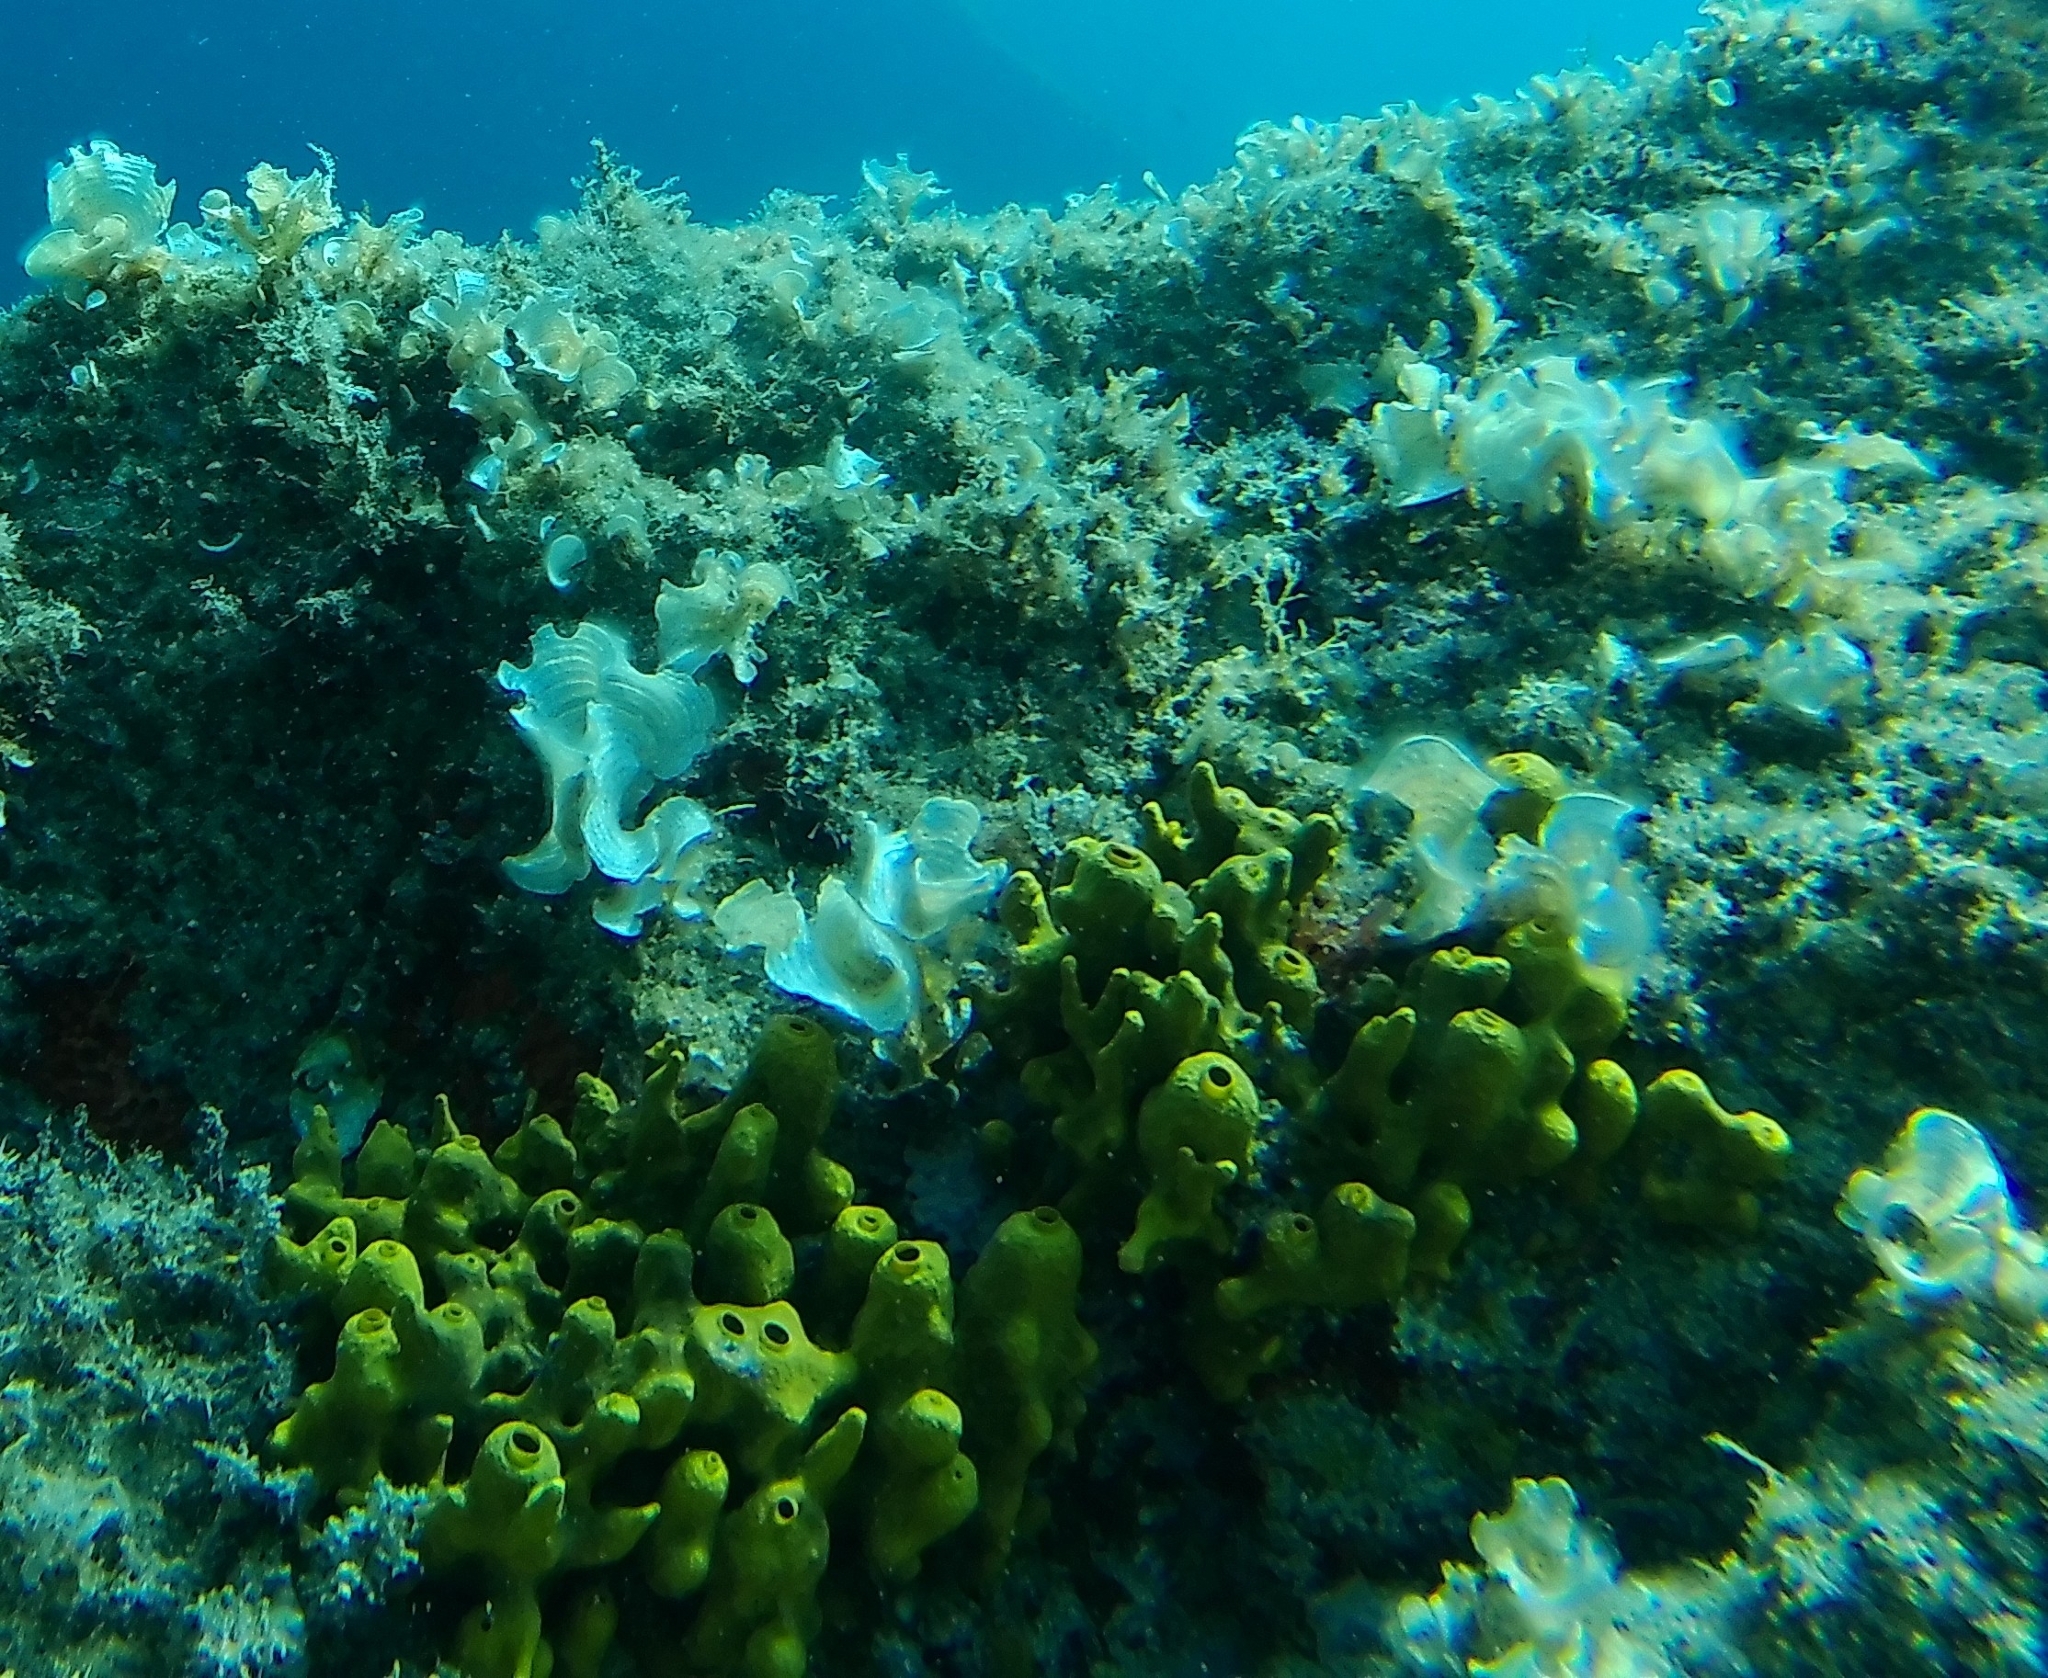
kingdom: Animalia
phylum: Porifera
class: Demospongiae
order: Verongiida
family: Aplysinidae
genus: Aplysina
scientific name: Aplysina aerophoba
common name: Aureate sponge
